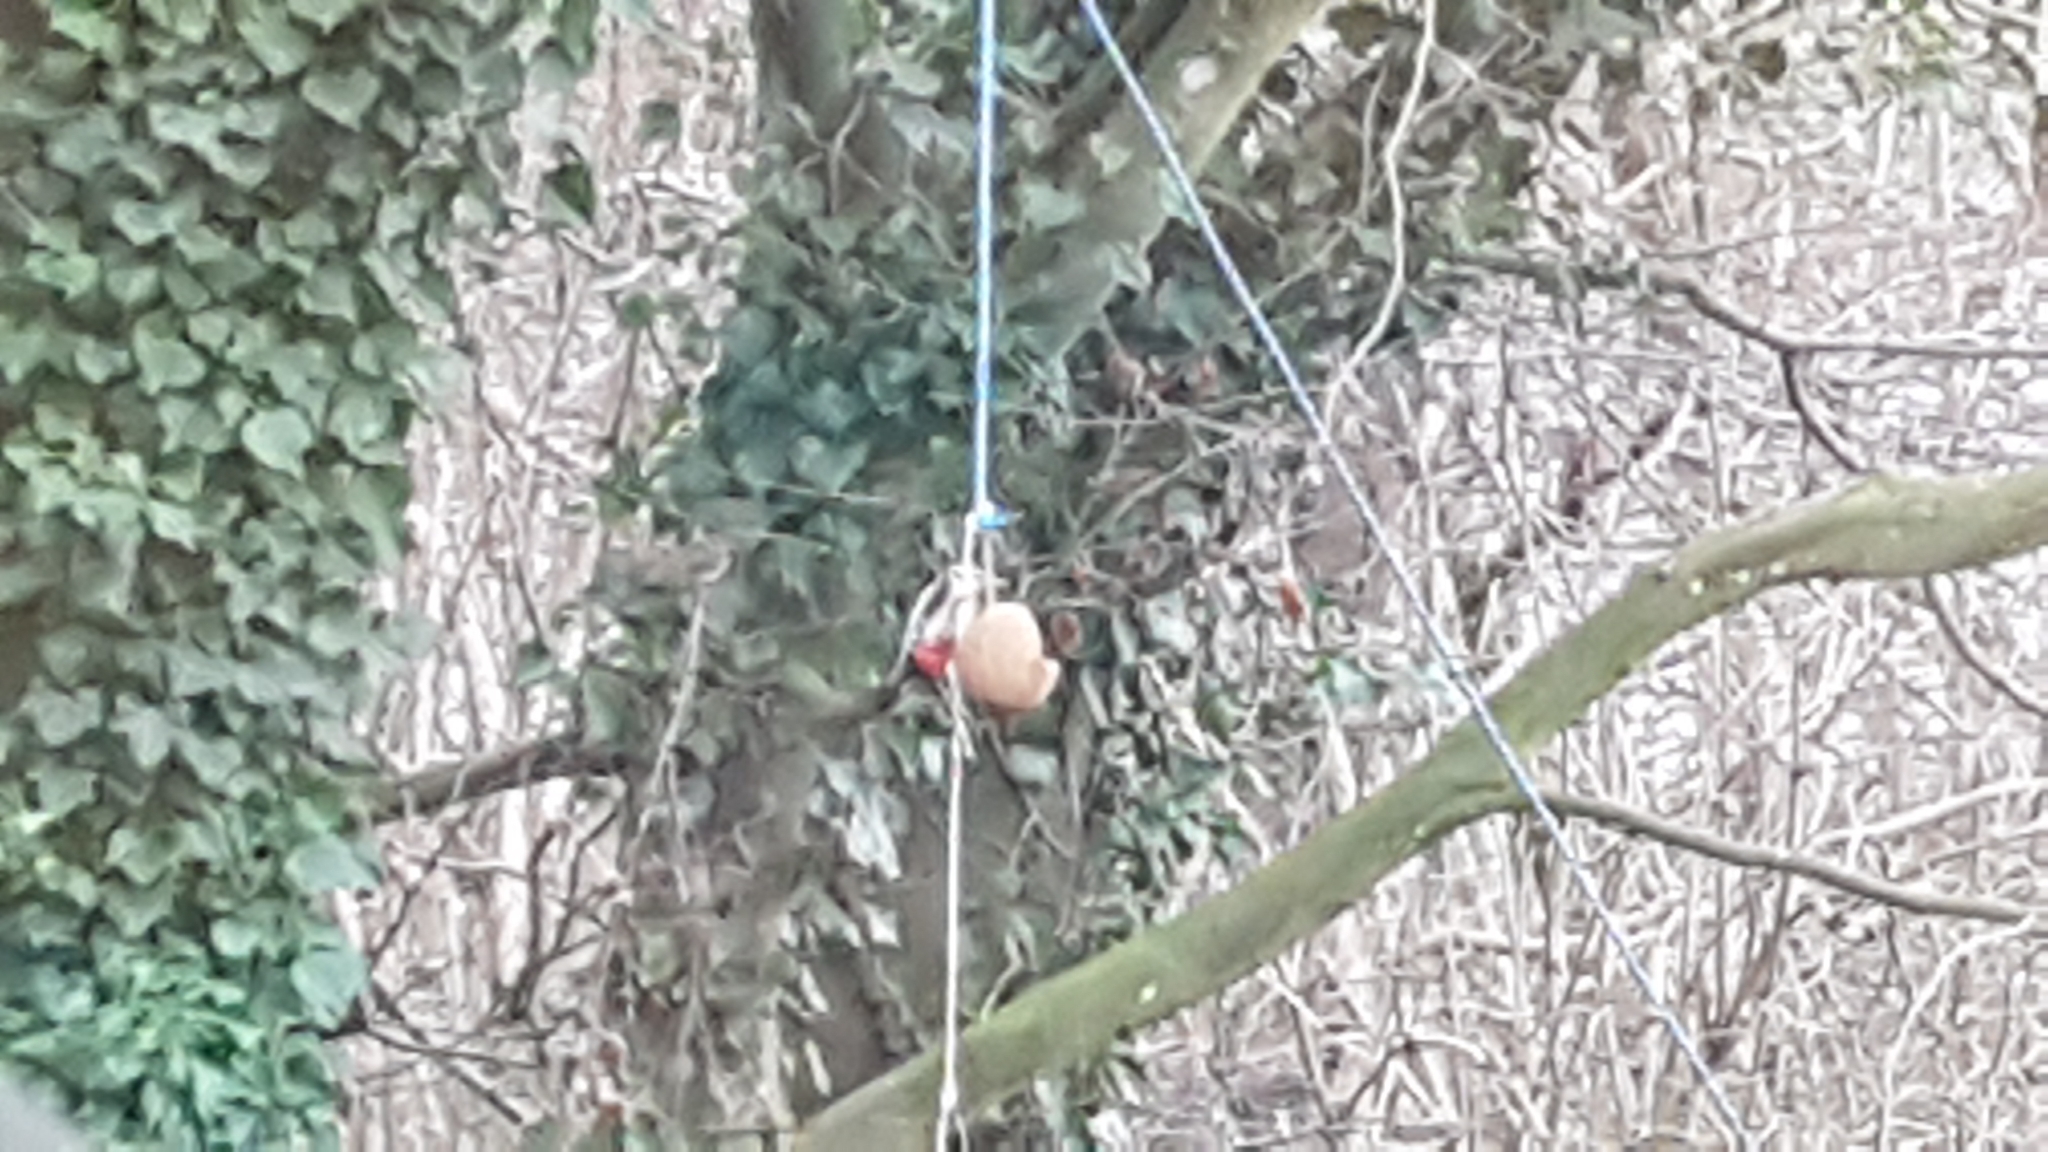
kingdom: Animalia
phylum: Chordata
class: Aves
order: Piciformes
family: Picidae
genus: Dendrocopos
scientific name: Dendrocopos major
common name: Great spotted woodpecker
